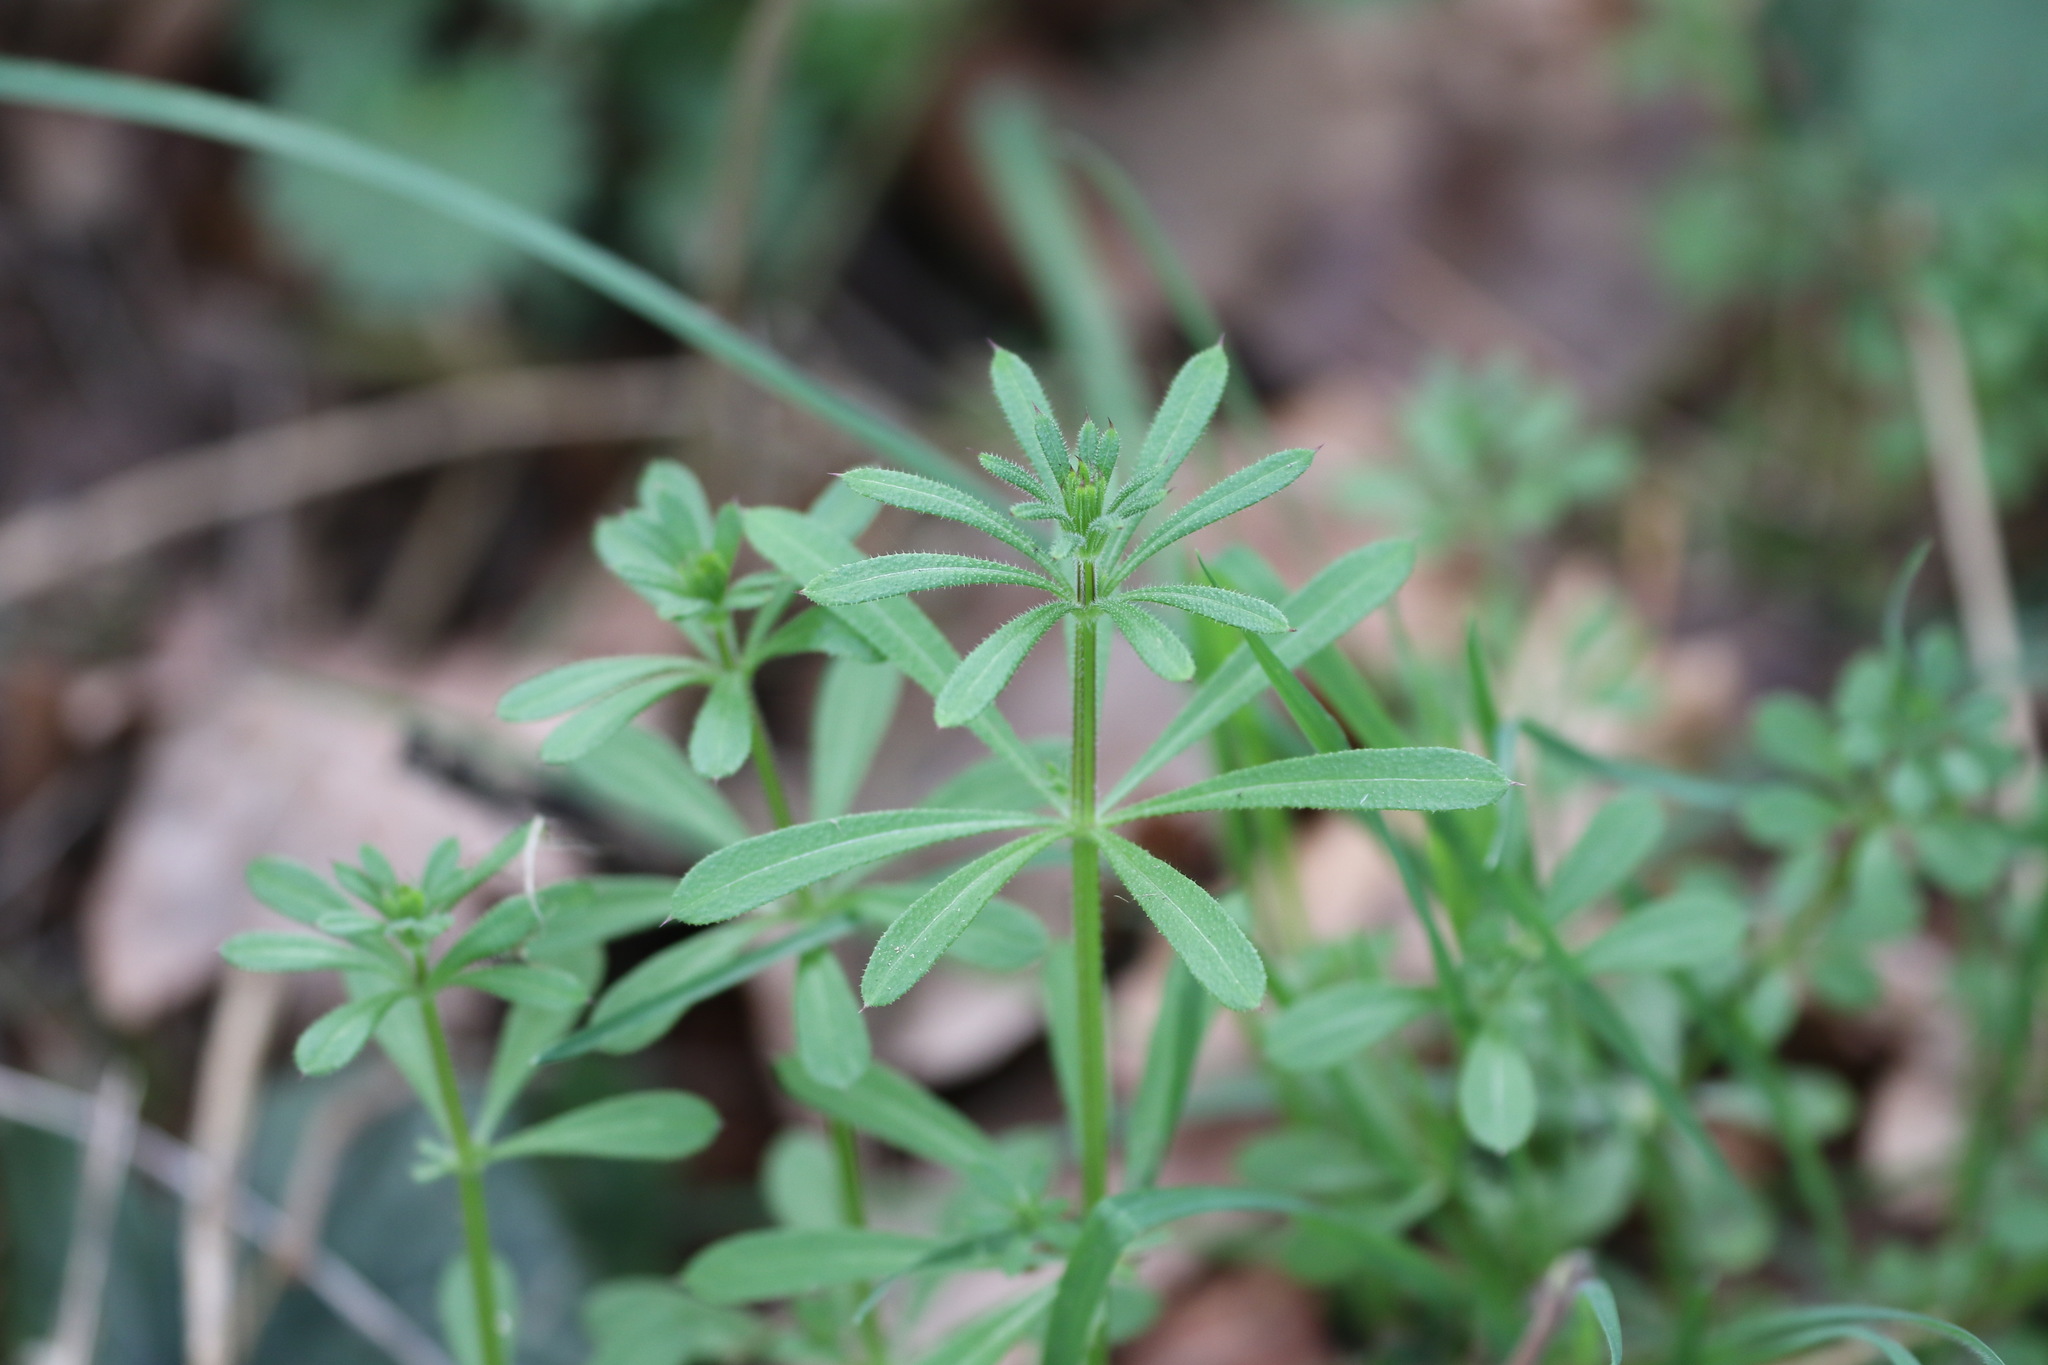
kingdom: Plantae
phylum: Tracheophyta
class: Magnoliopsida
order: Gentianales
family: Rubiaceae
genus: Galium
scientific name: Galium aparine
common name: Cleavers
